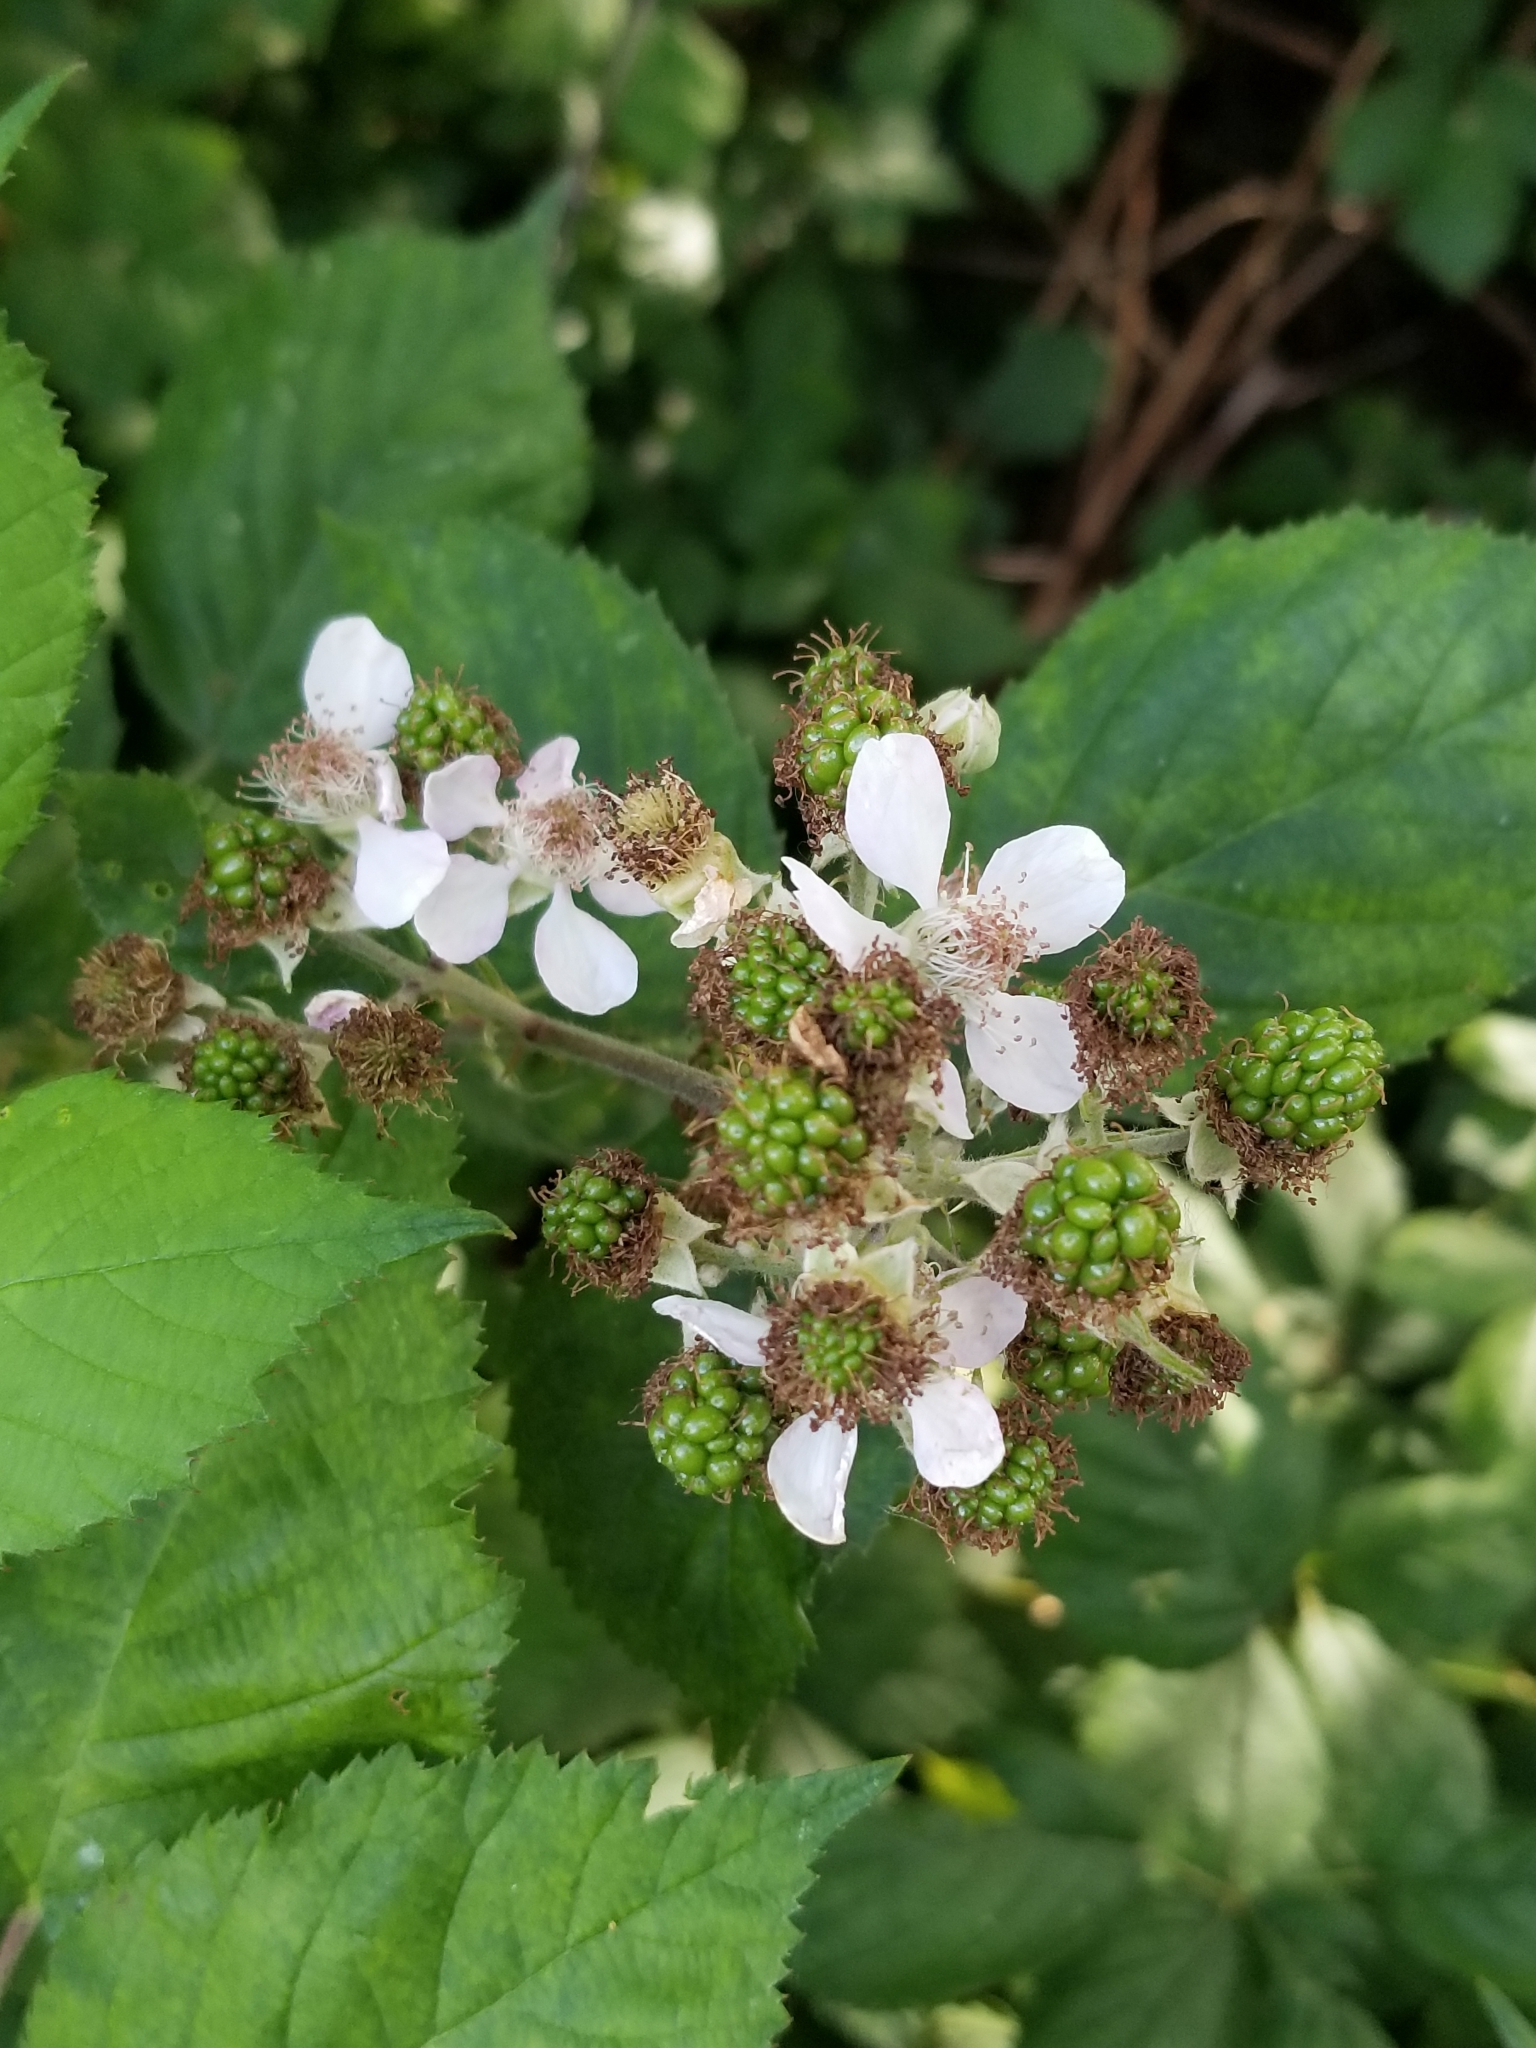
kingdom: Plantae
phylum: Tracheophyta
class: Magnoliopsida
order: Rosales
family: Rosaceae
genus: Rubus
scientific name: Rubus armeniacus
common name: Himalayan blackberry
